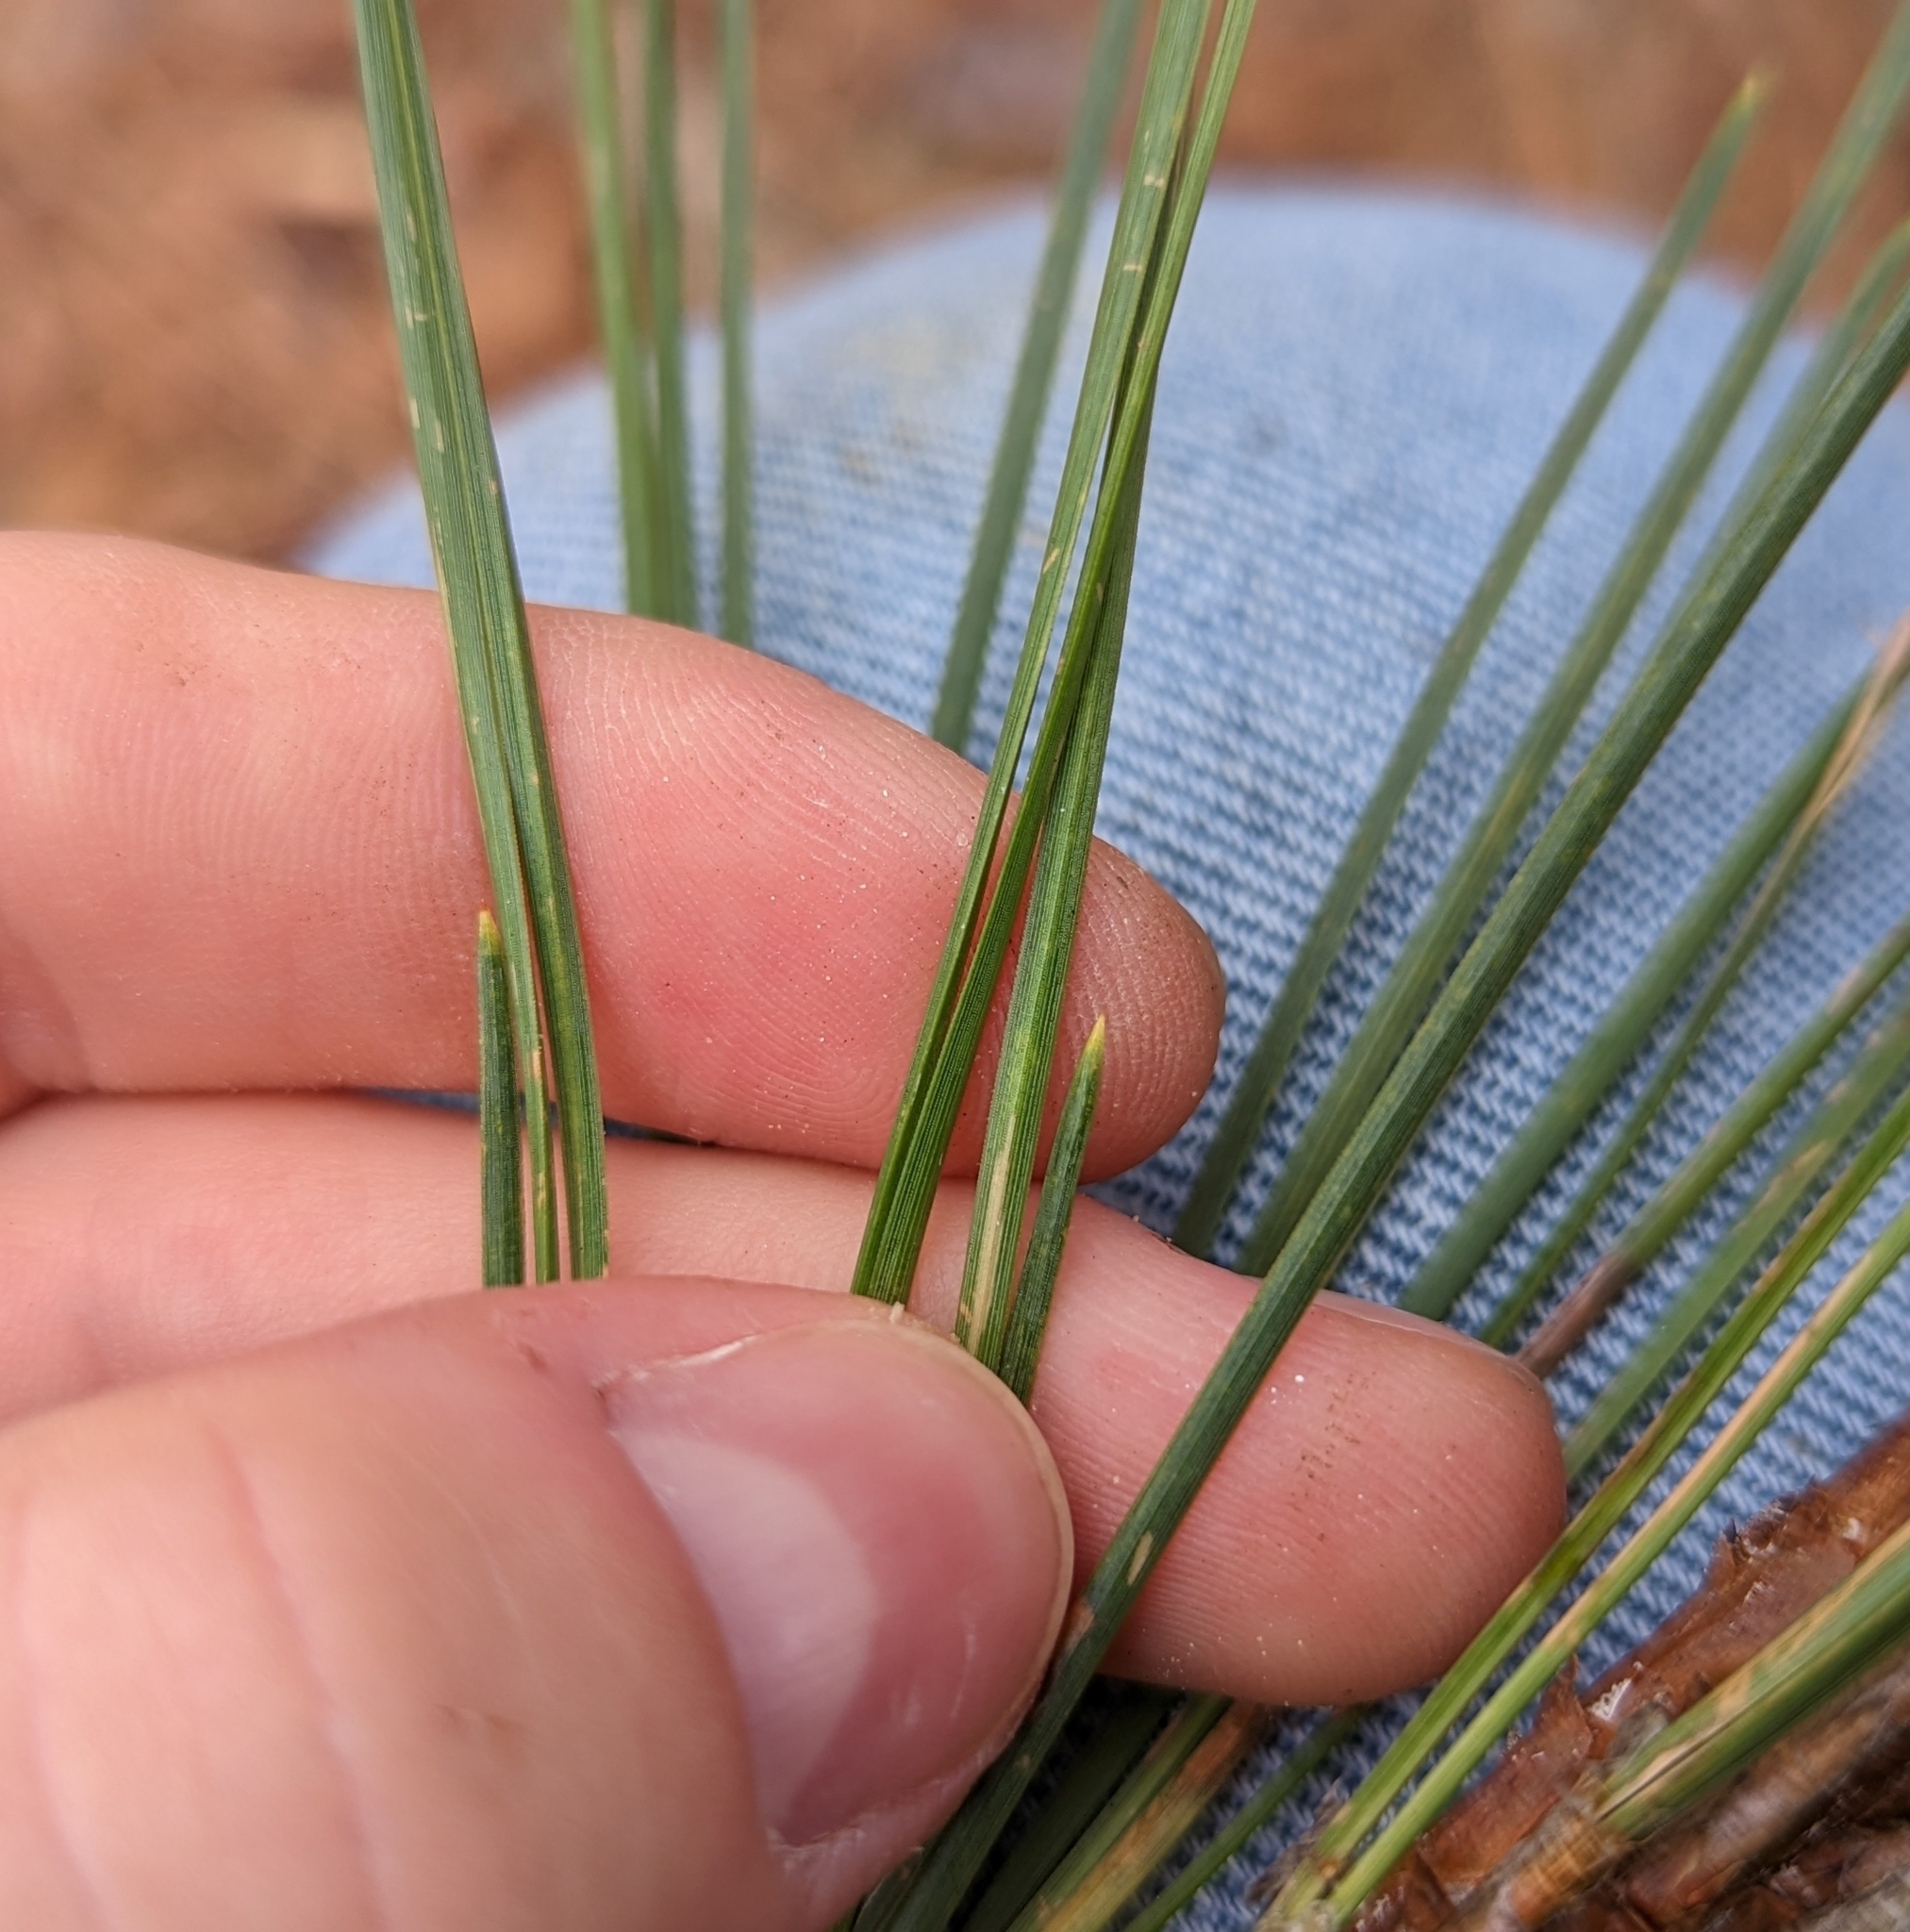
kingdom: Plantae
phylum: Tracheophyta
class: Pinopsida
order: Pinales
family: Pinaceae
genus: Pinus
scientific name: Pinus taeda
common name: Loblolly pine
